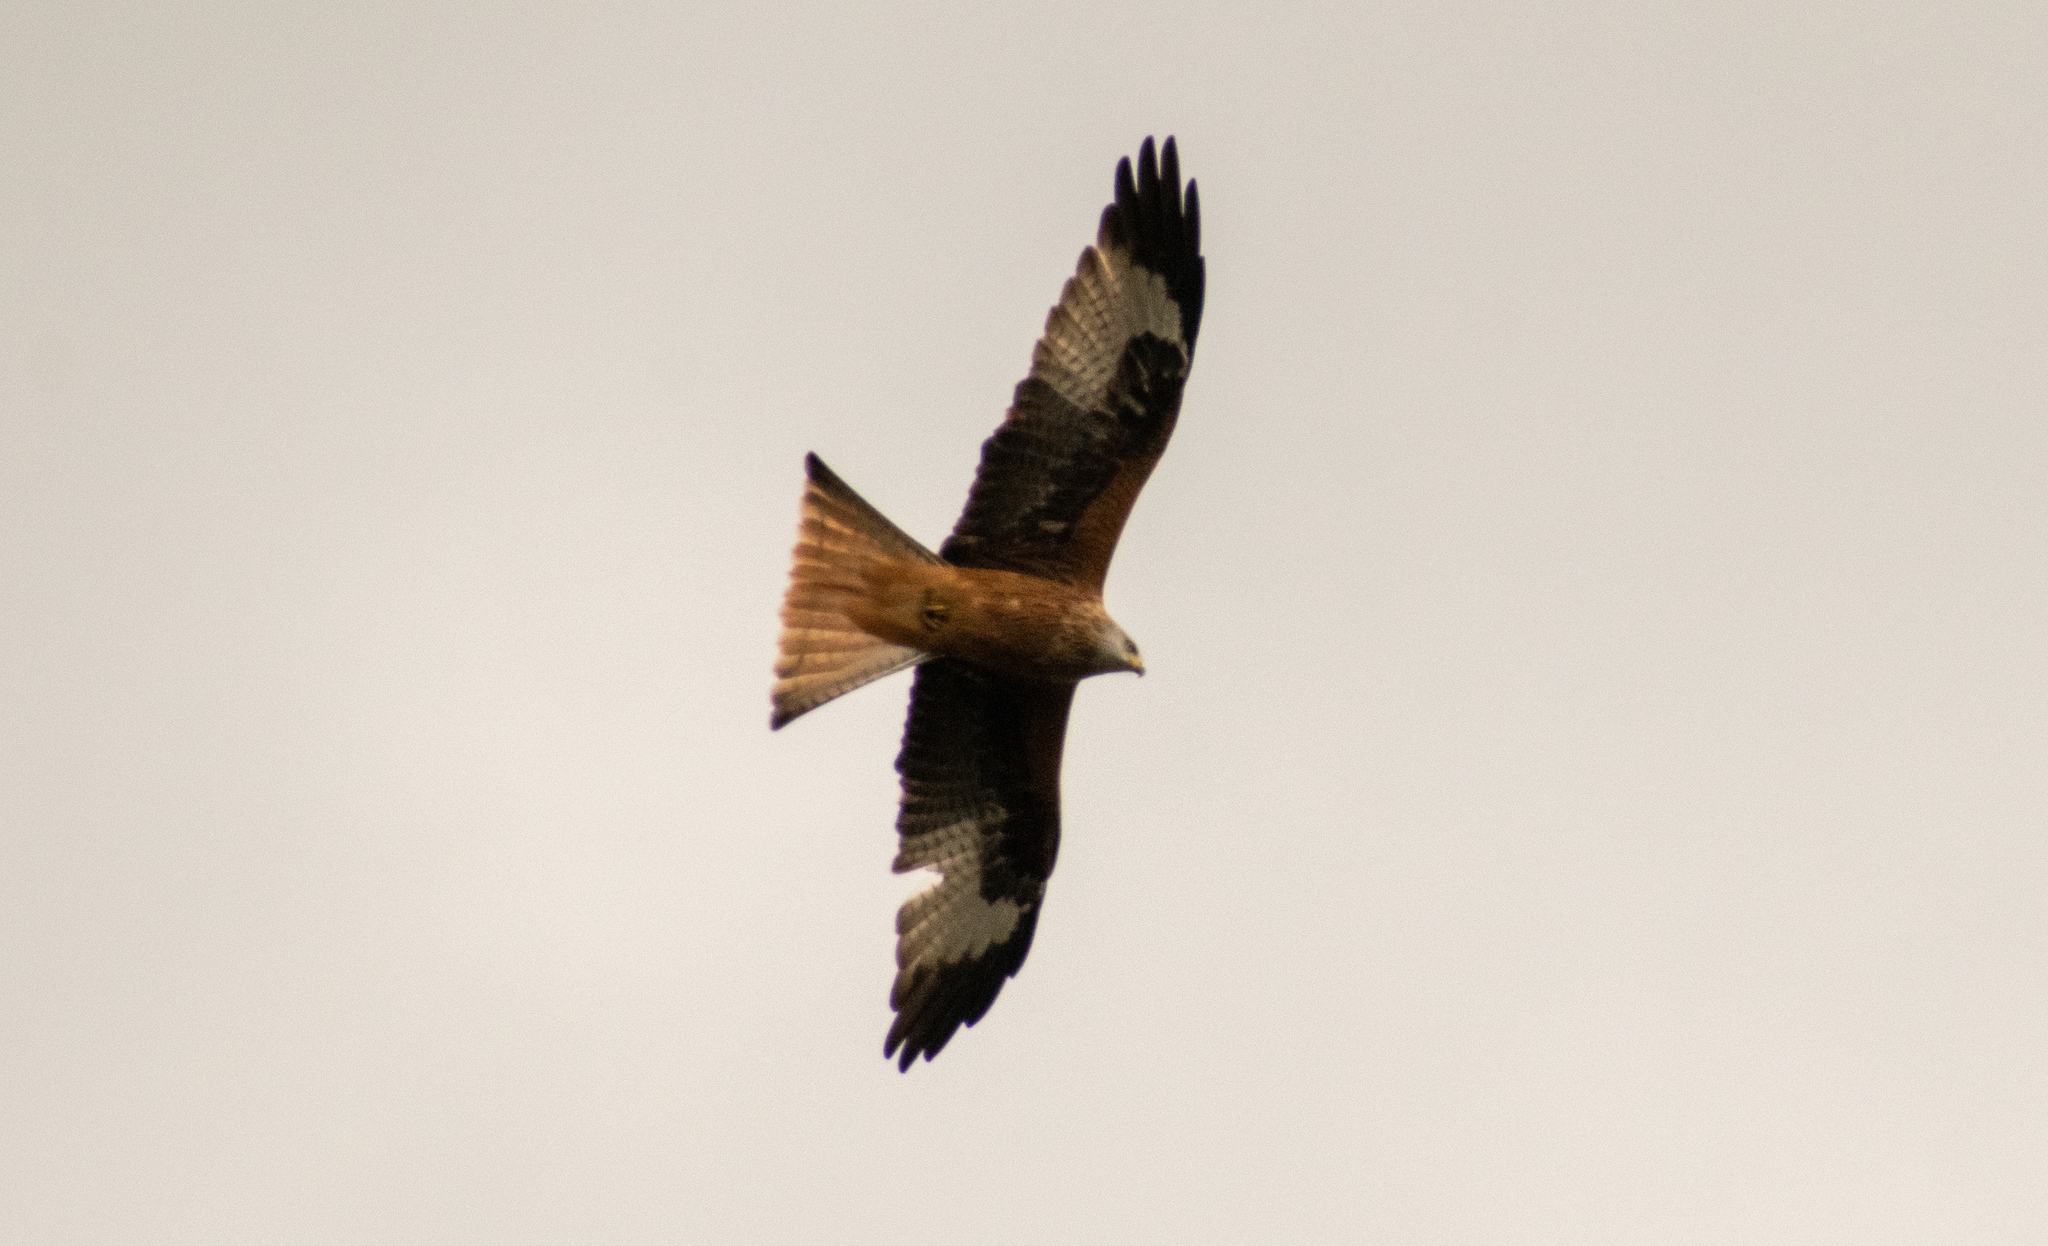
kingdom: Animalia
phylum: Chordata
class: Aves
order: Accipitriformes
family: Accipitridae
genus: Milvus
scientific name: Milvus milvus
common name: Red kite
